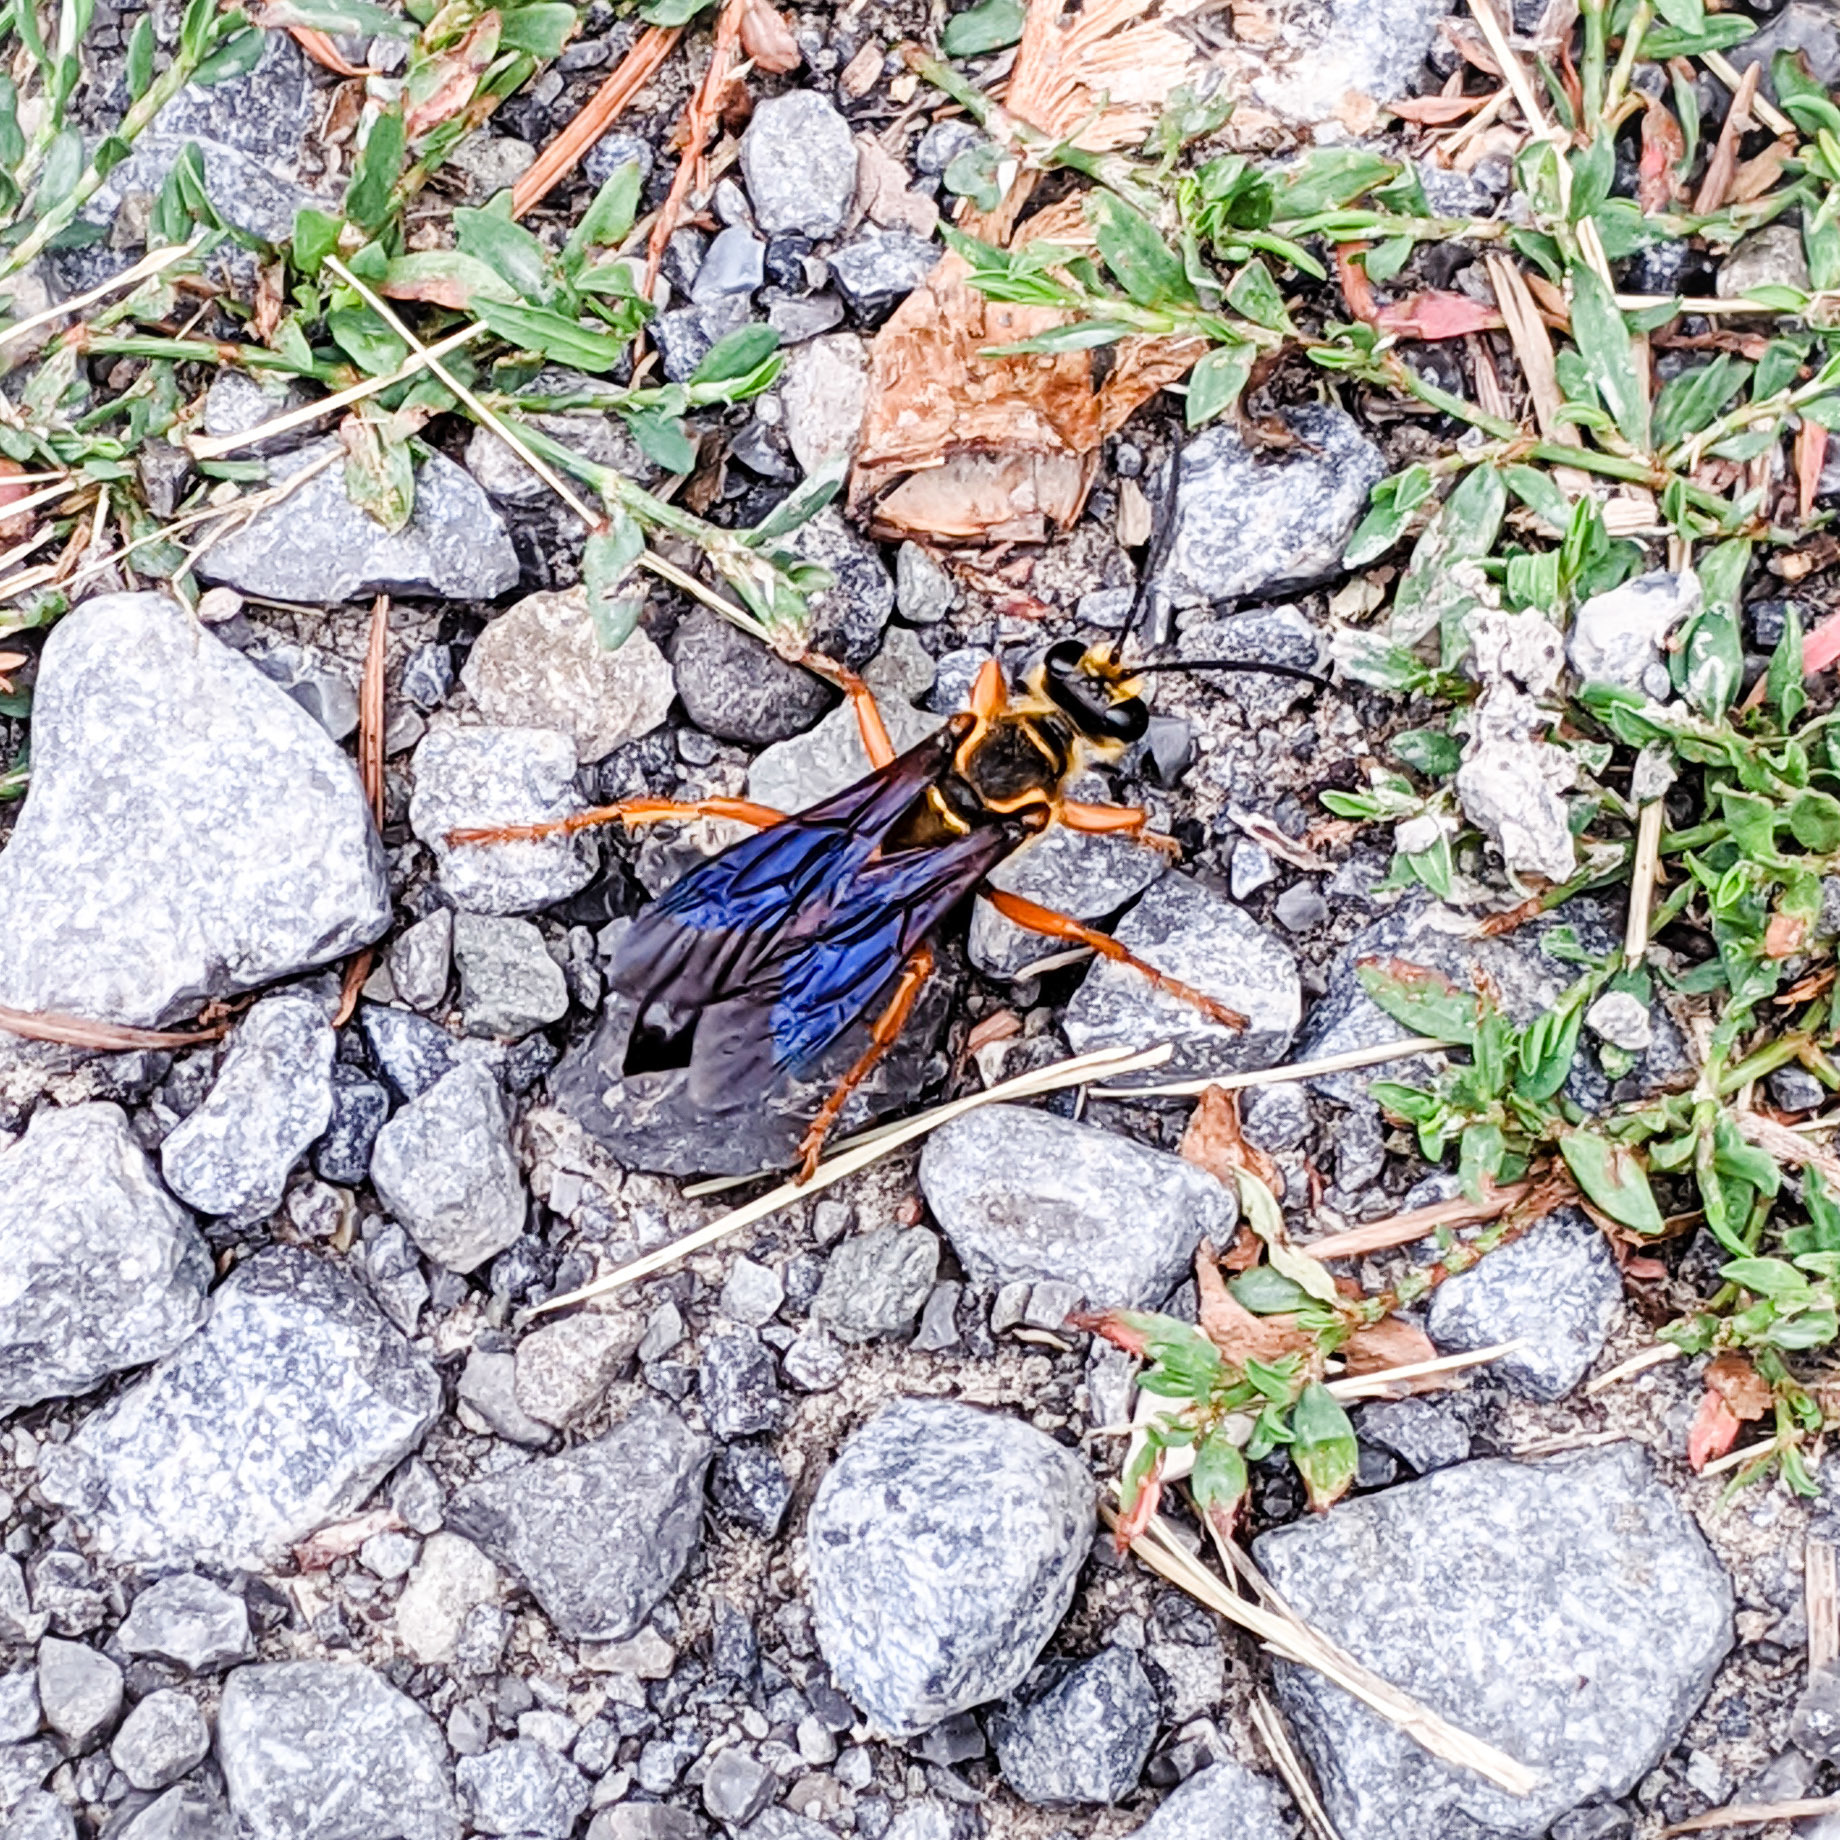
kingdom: Animalia
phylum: Arthropoda
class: Insecta
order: Hymenoptera
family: Sphecidae
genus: Sphex
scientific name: Sphex ichneumoneus
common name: Great golden digger wasp
